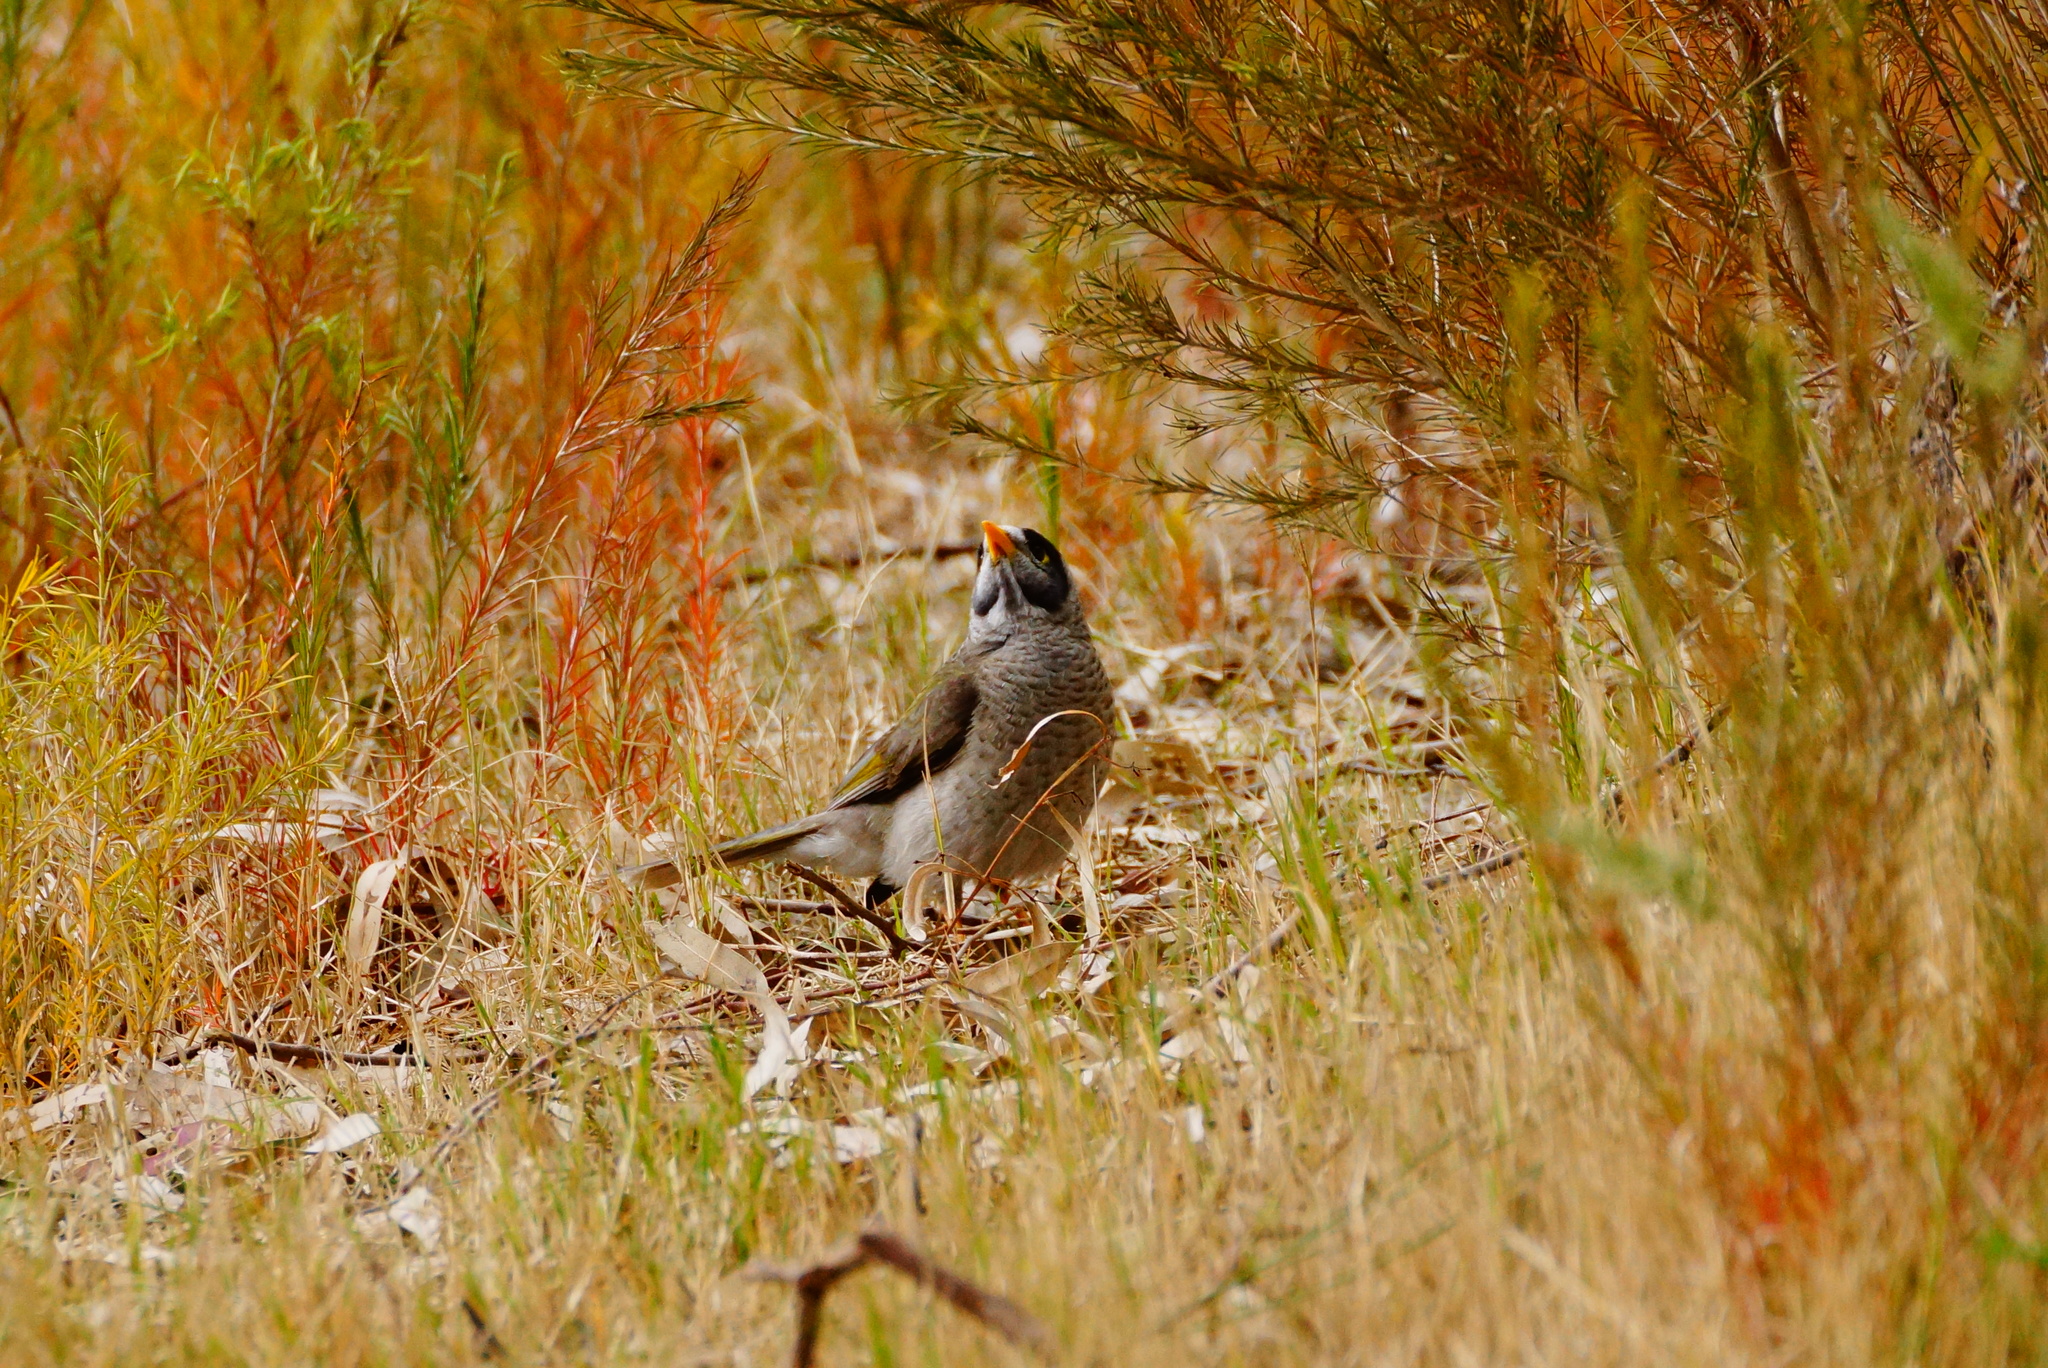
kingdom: Animalia
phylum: Chordata
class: Aves
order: Passeriformes
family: Meliphagidae
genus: Manorina
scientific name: Manorina melanocephala
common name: Noisy miner
